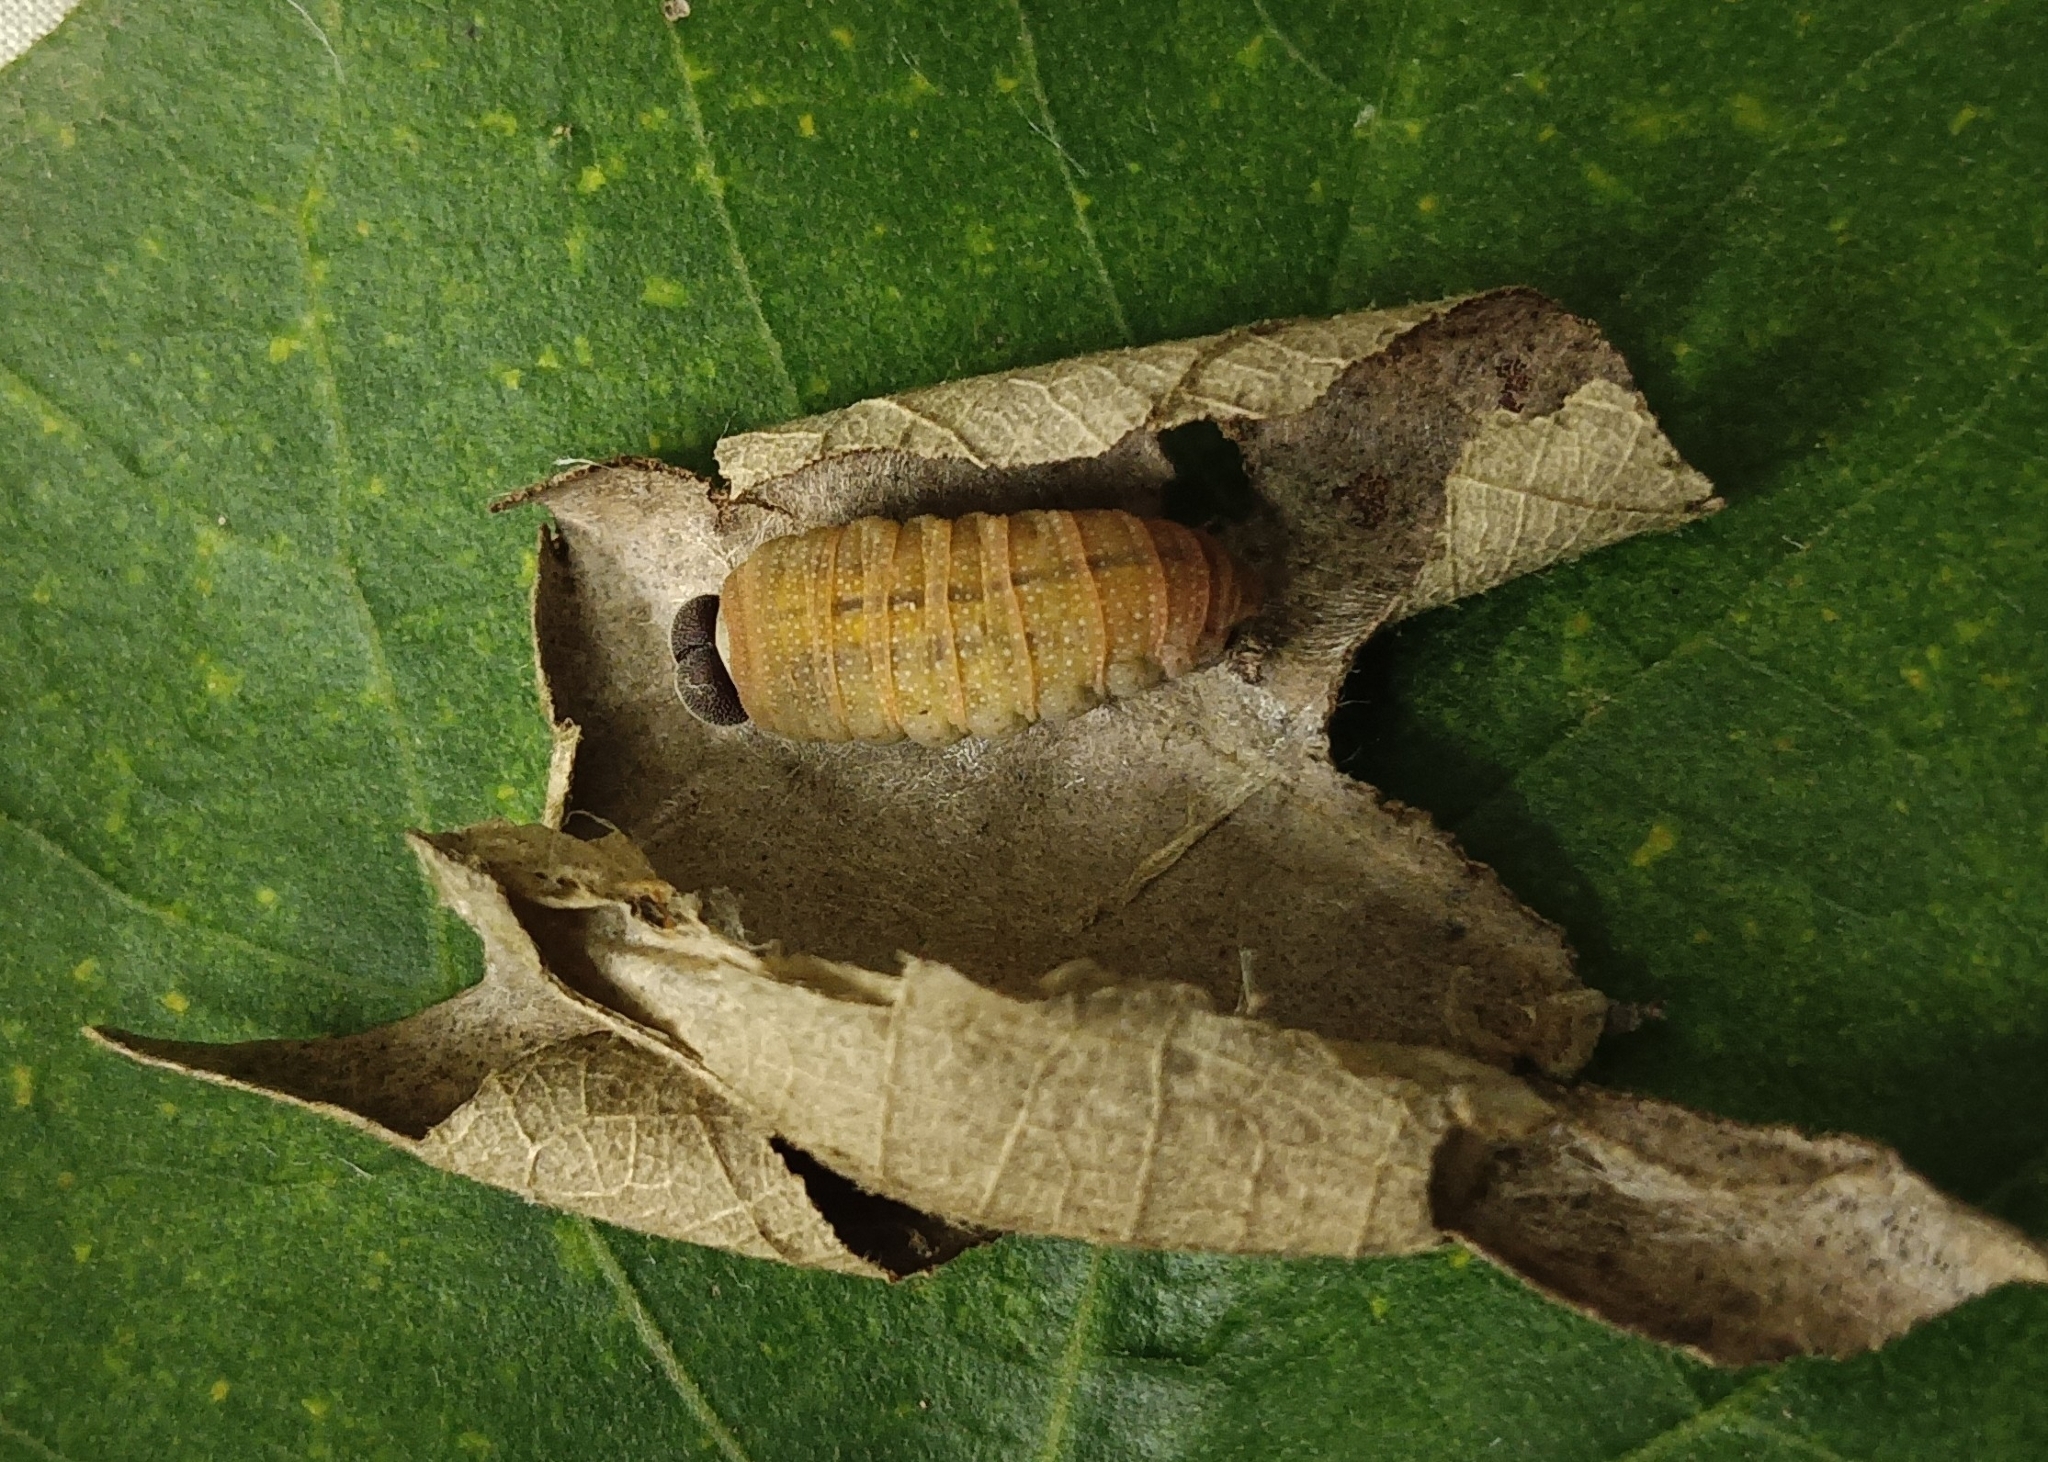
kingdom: Animalia
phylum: Arthropoda
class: Insecta
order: Lepidoptera
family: Hesperiidae
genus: Coladenia
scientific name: Coladenia
